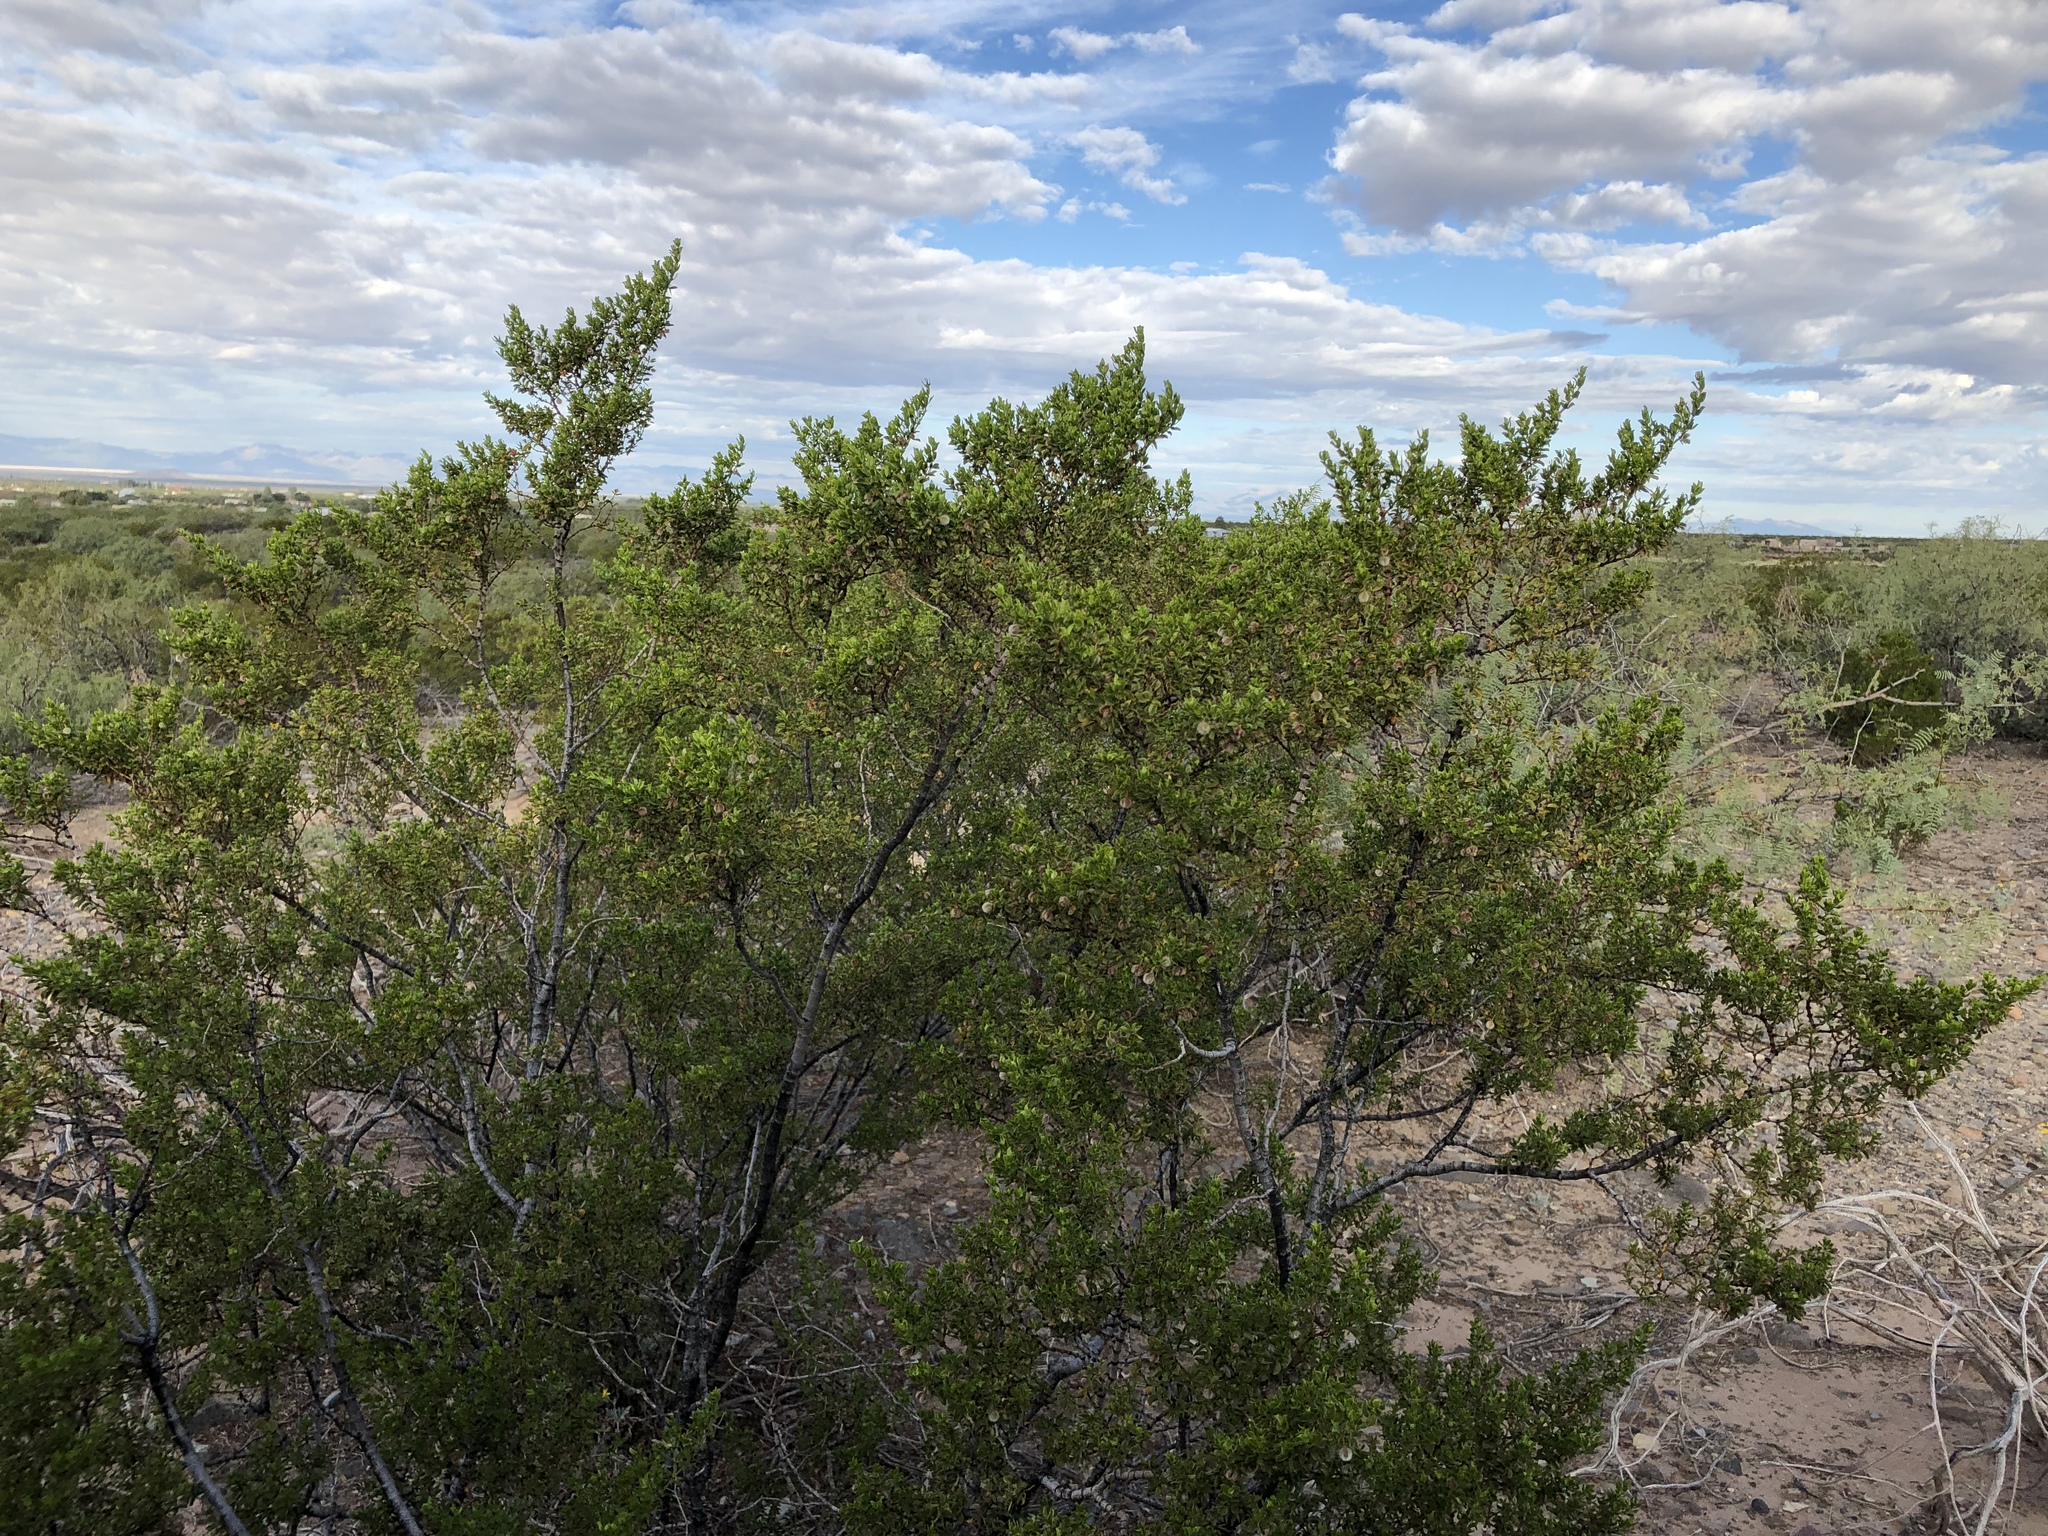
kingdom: Plantae
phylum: Tracheophyta
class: Magnoliopsida
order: Zygophyllales
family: Zygophyllaceae
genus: Larrea
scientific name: Larrea tridentata
